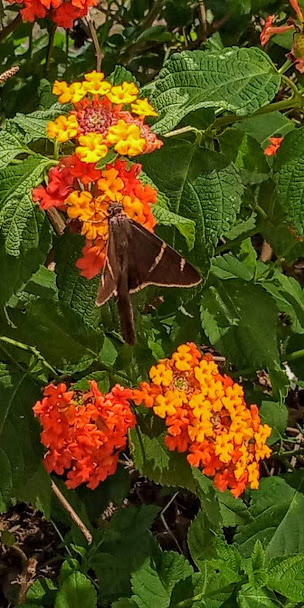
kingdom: Animalia
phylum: Arthropoda
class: Insecta
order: Lepidoptera
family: Hesperiidae
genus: Urbanus
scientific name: Urbanus tanna
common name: Tanna longtail
